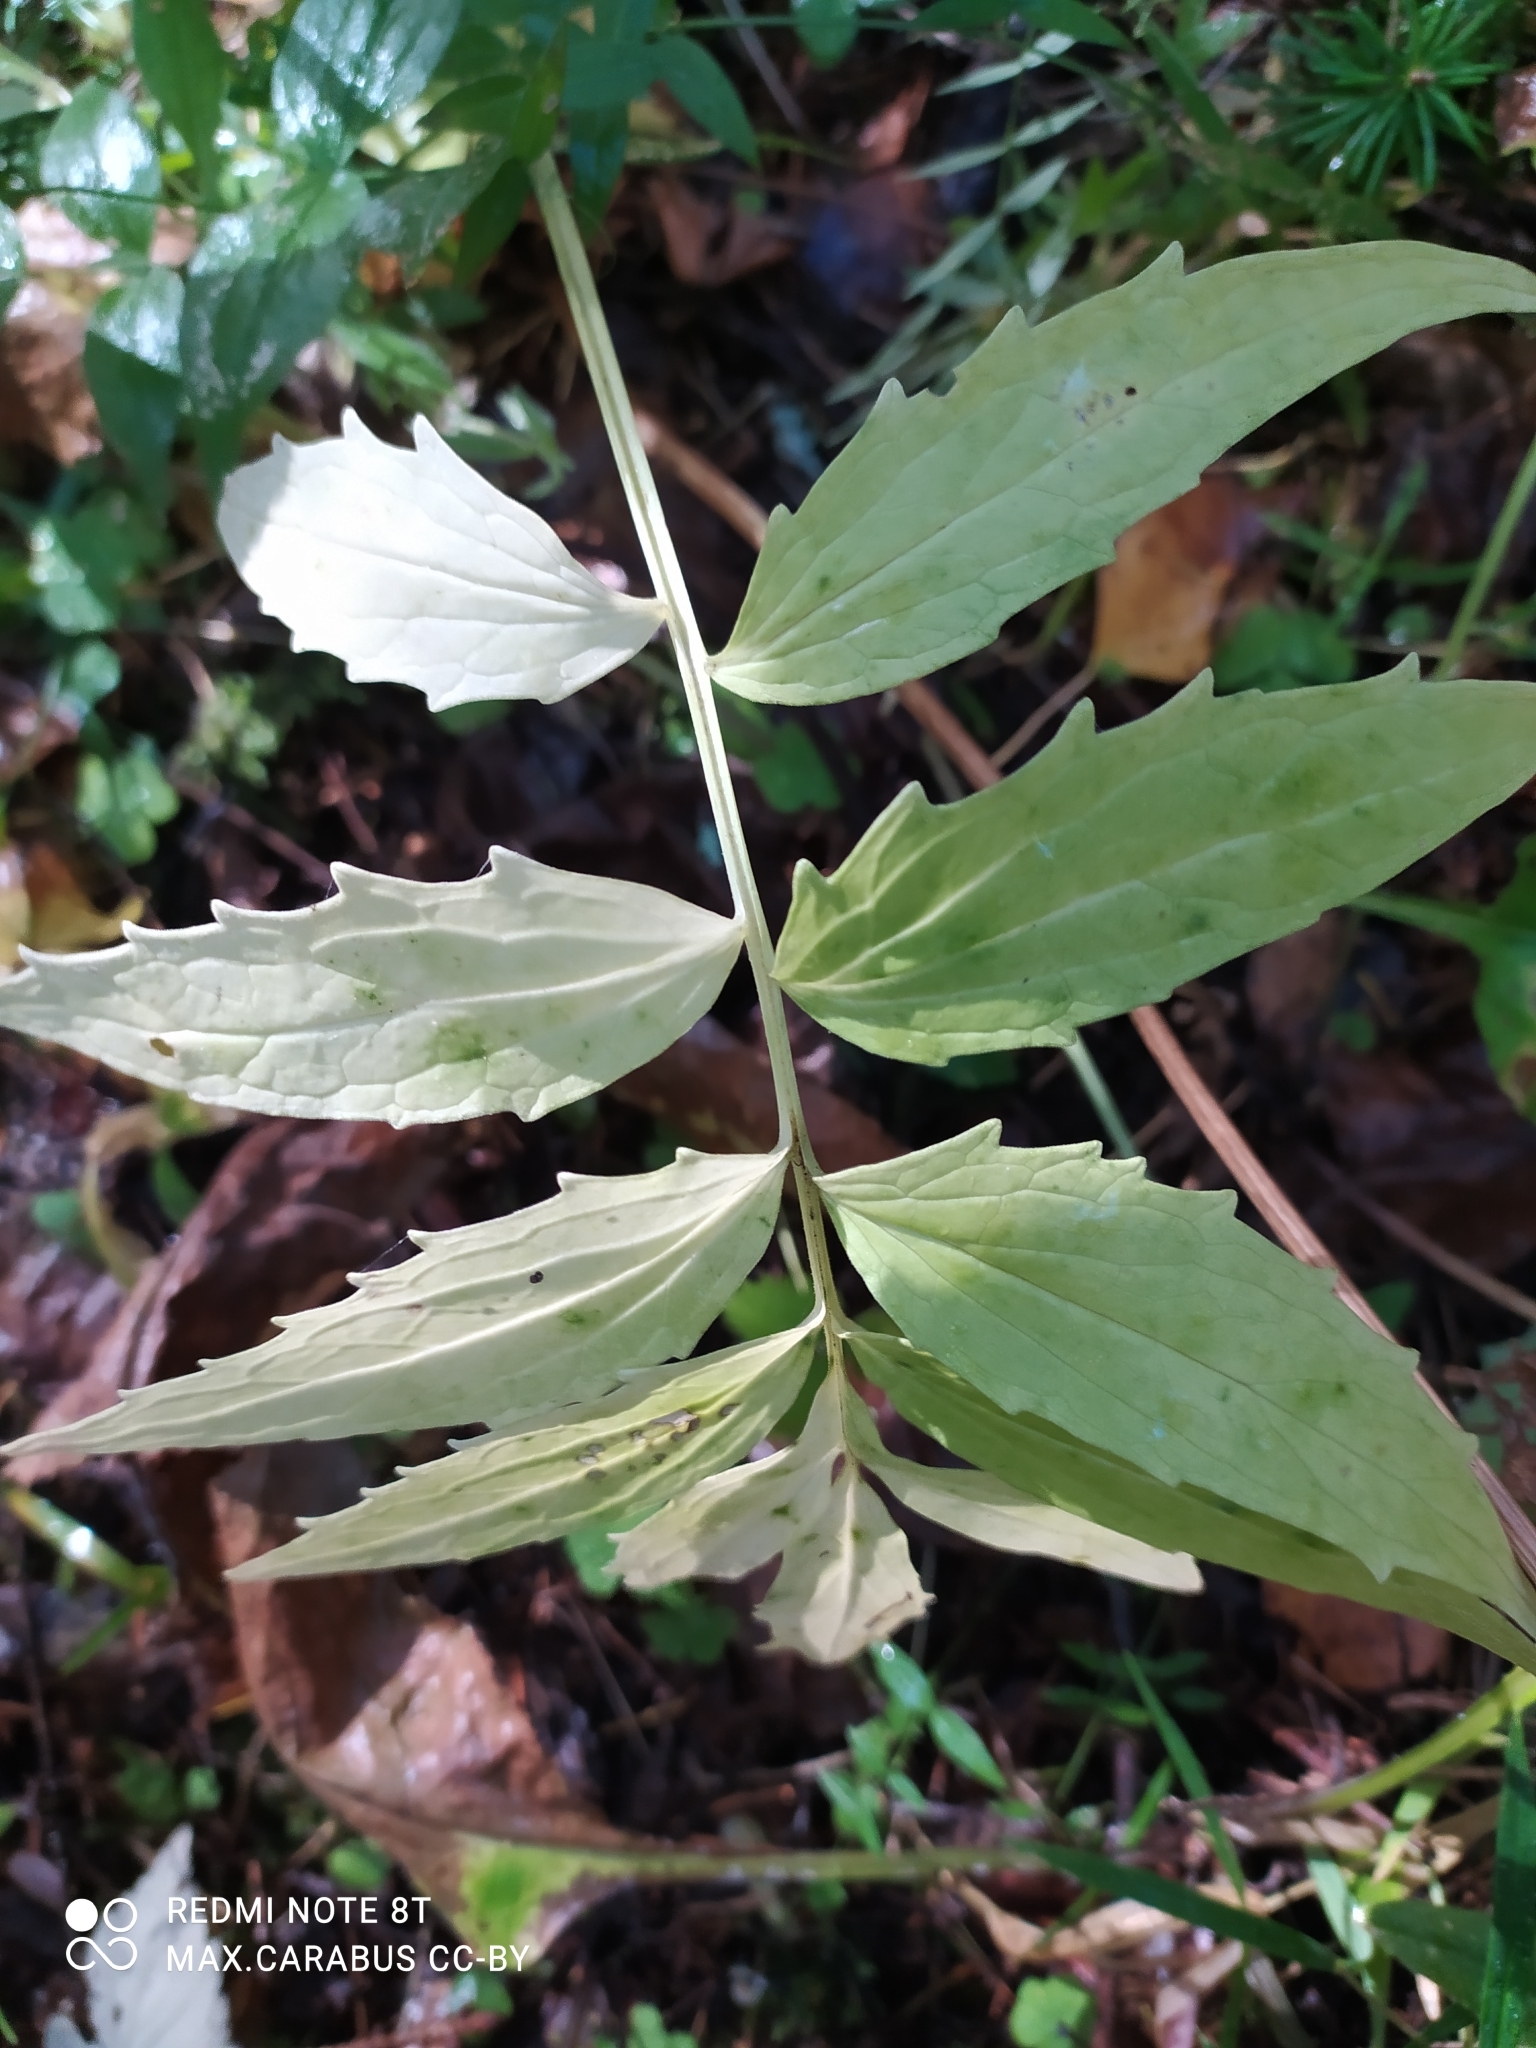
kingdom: Plantae
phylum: Tracheophyta
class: Magnoliopsida
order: Dipsacales
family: Caprifoliaceae
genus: Valeriana
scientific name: Valeriana wolgensis
